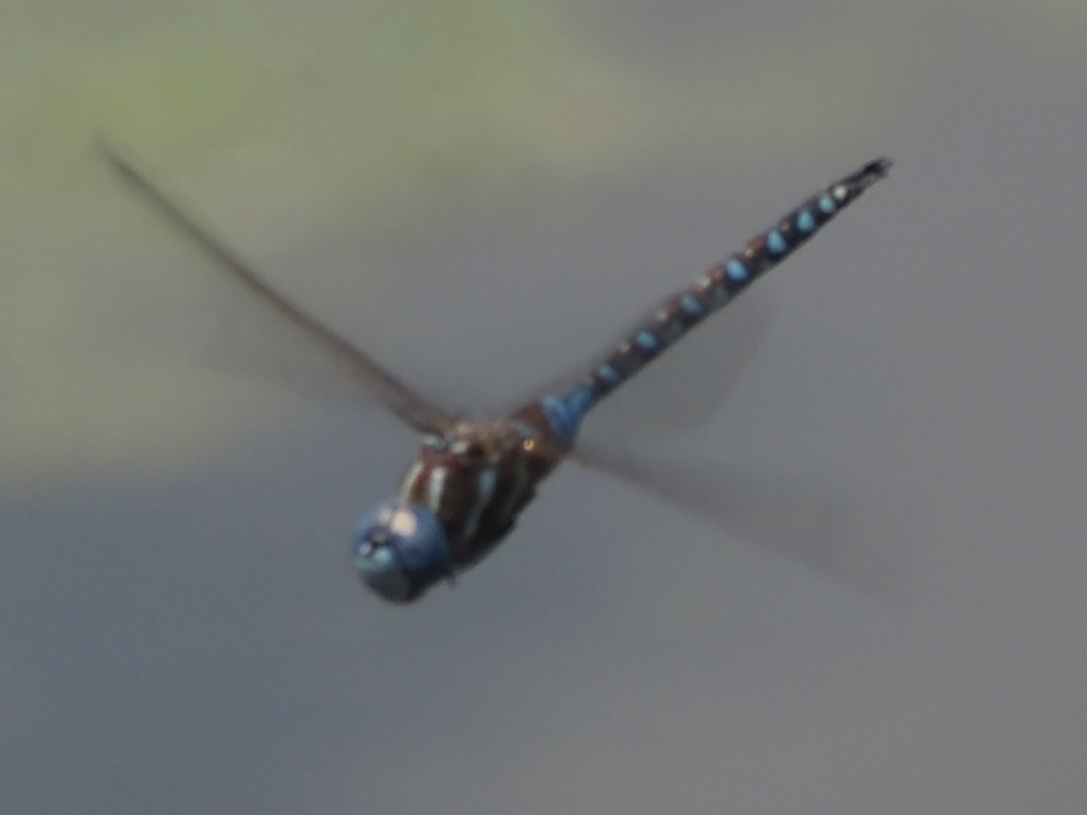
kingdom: Animalia
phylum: Arthropoda
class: Insecta
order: Odonata
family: Aeshnidae
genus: Rhionaeschna
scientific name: Rhionaeschna multicolor
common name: Blue-eyed darner
